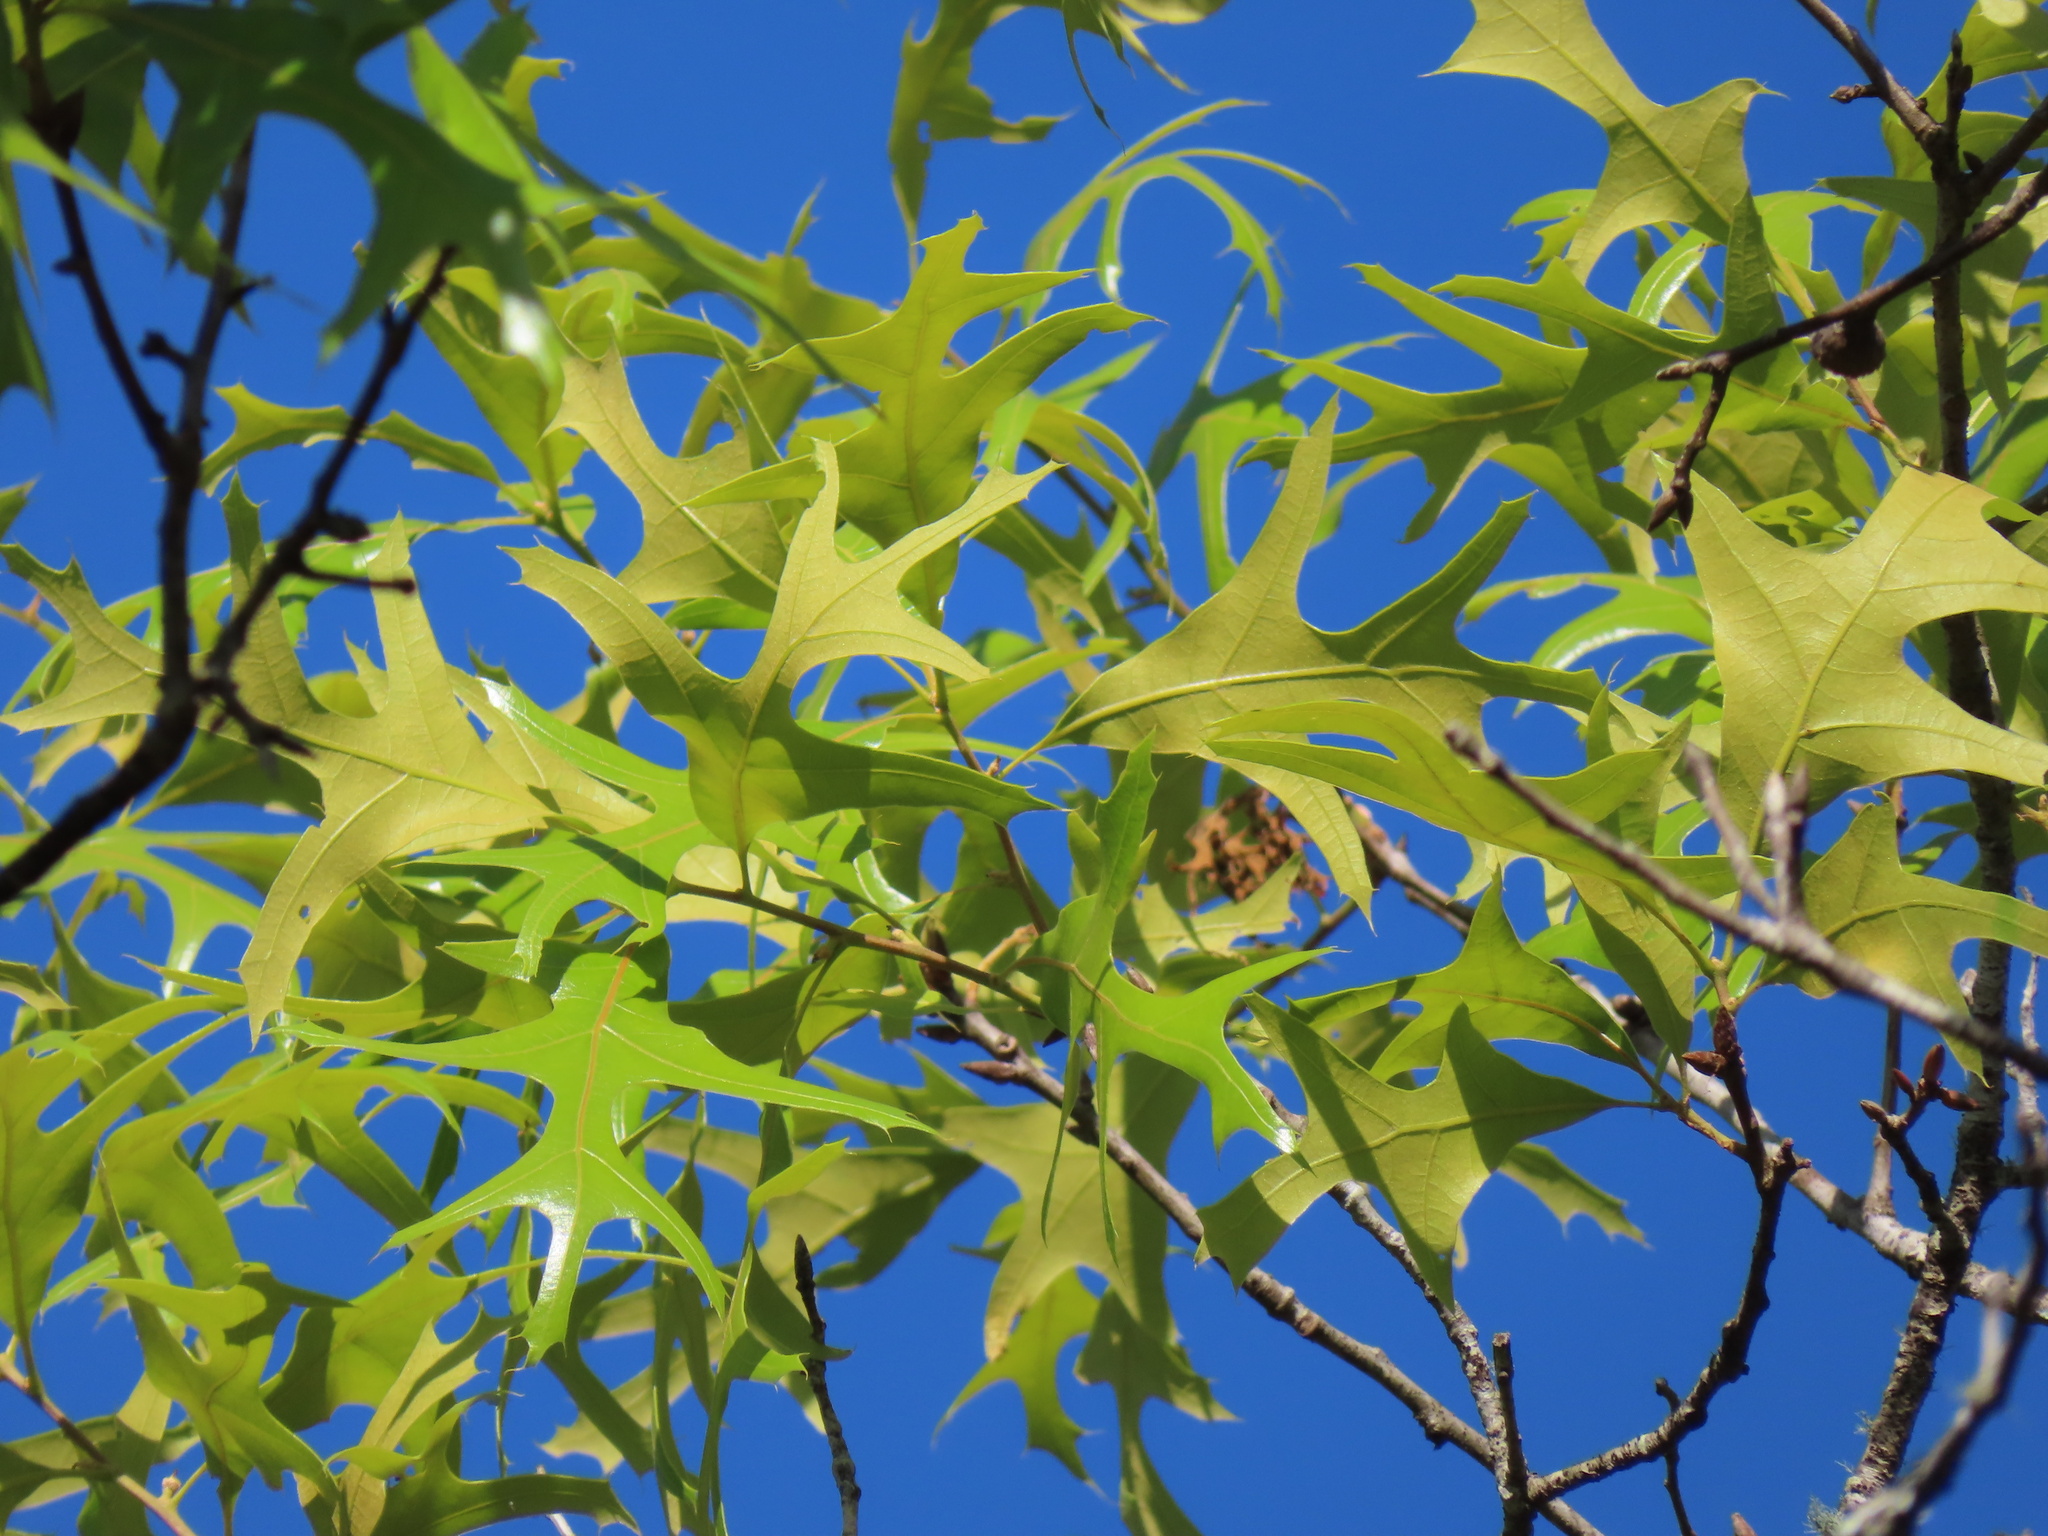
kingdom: Plantae
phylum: Tracheophyta
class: Magnoliopsida
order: Fagales
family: Fagaceae
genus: Quercus
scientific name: Quercus laevis
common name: Turkey oak
